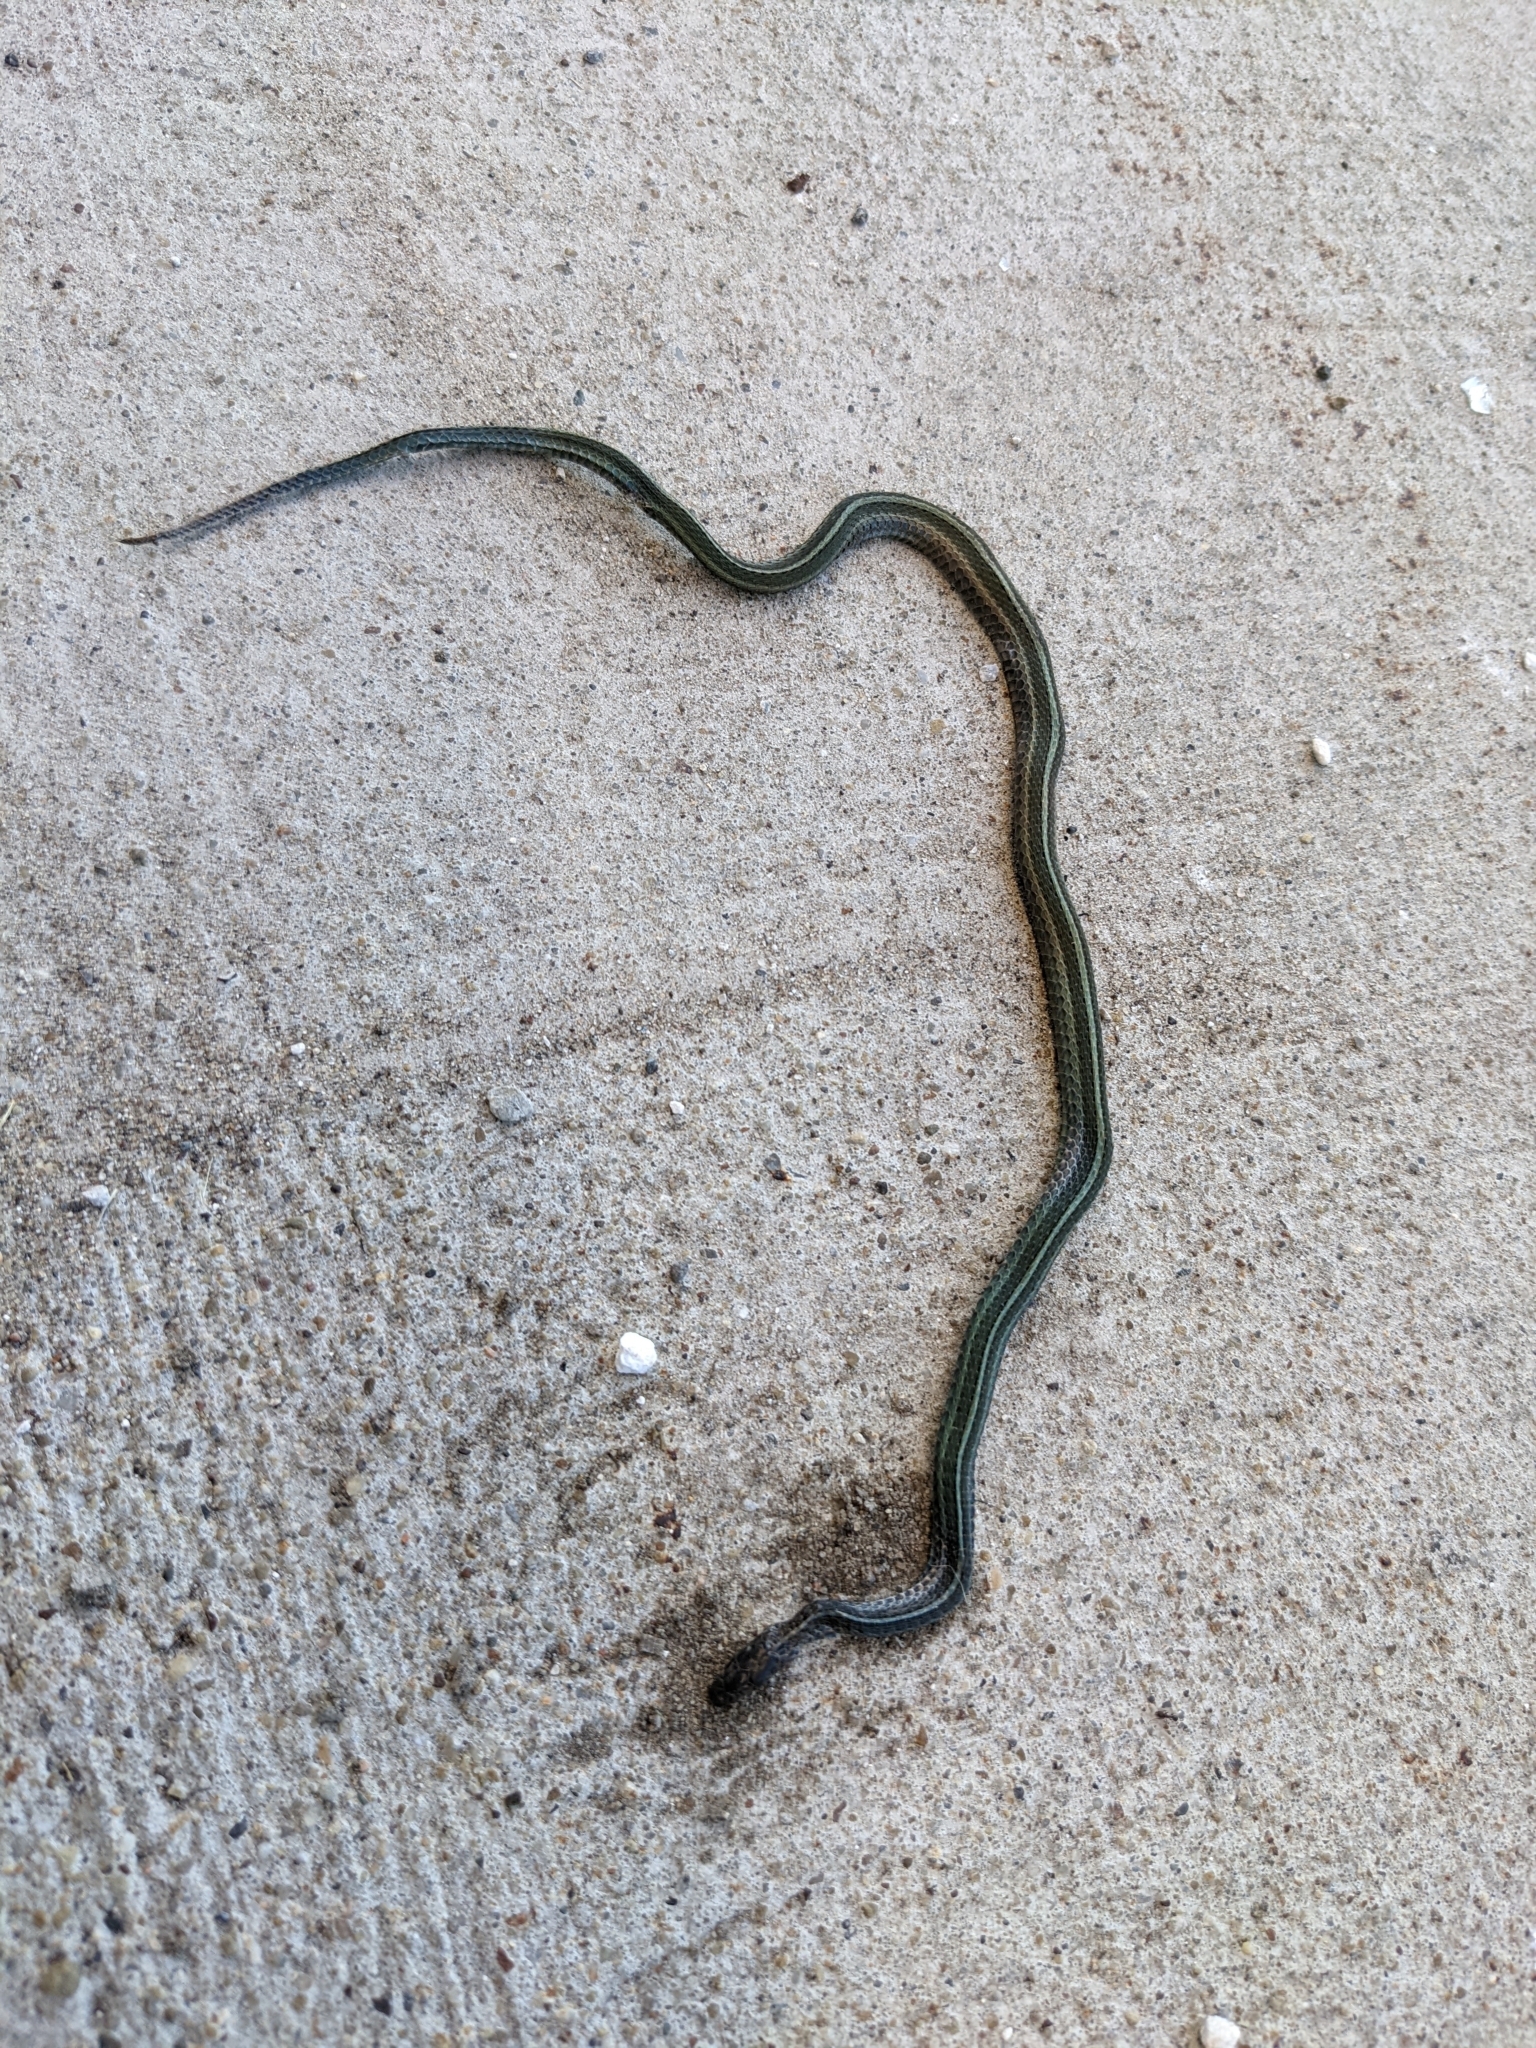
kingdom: Animalia
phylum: Chordata
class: Squamata
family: Colubridae
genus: Thamnophis
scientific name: Thamnophis sirtalis
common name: Common garter snake
